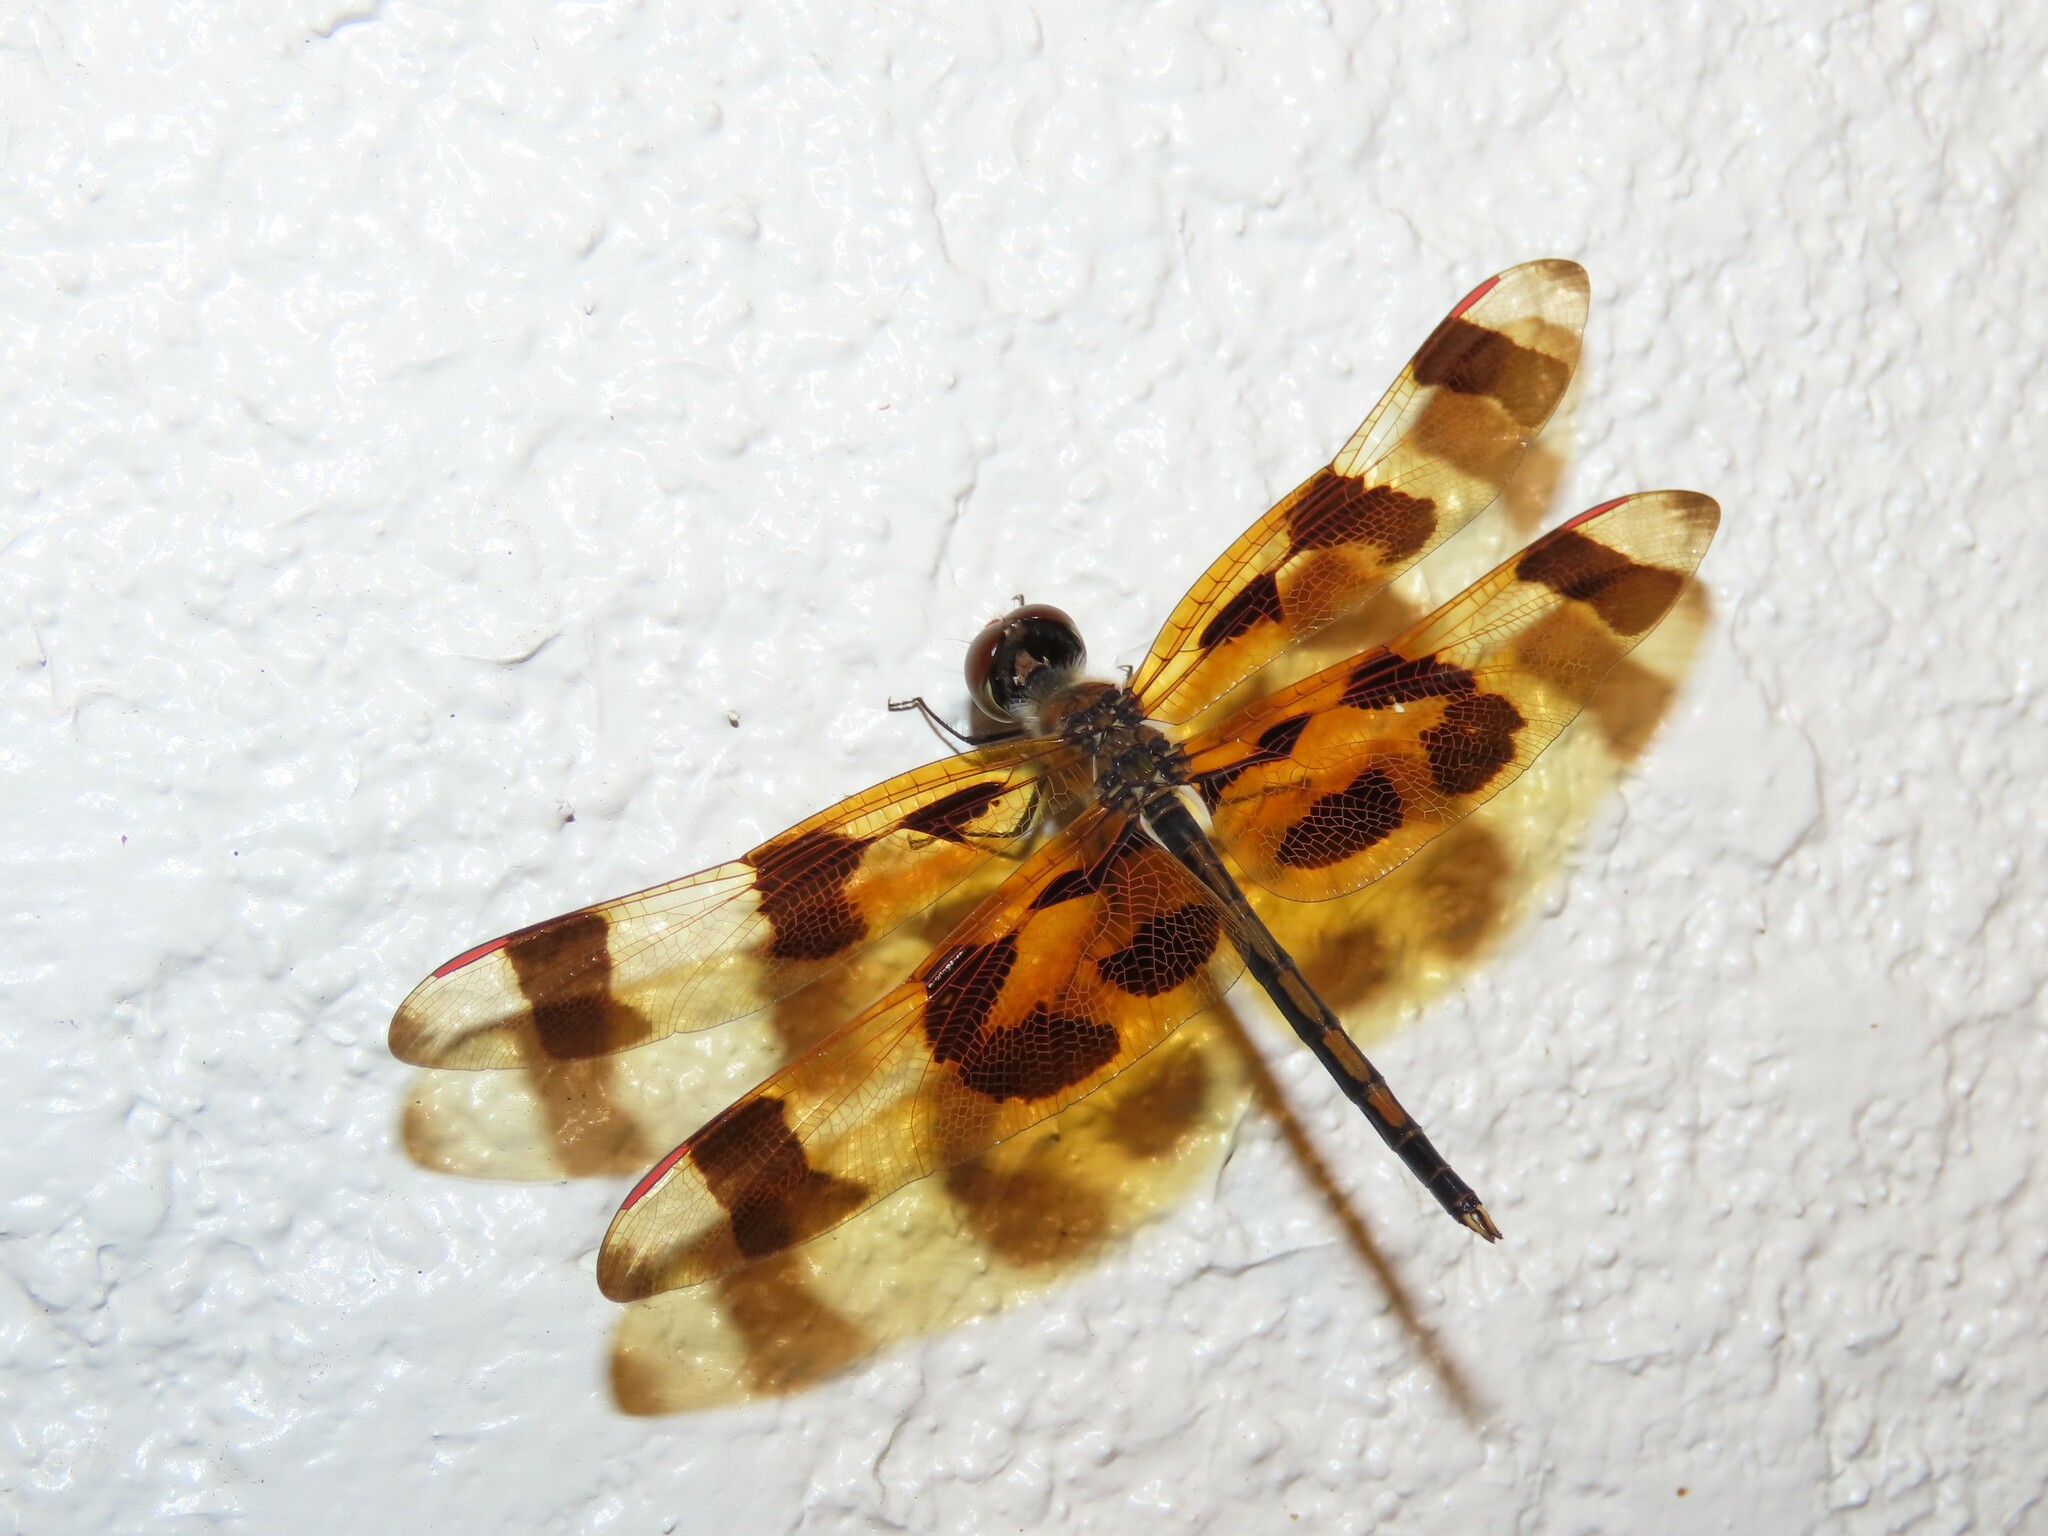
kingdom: Animalia
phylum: Arthropoda
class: Insecta
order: Odonata
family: Libellulidae
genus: Celithemis
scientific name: Celithemis eponina
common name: Halloween pennant
